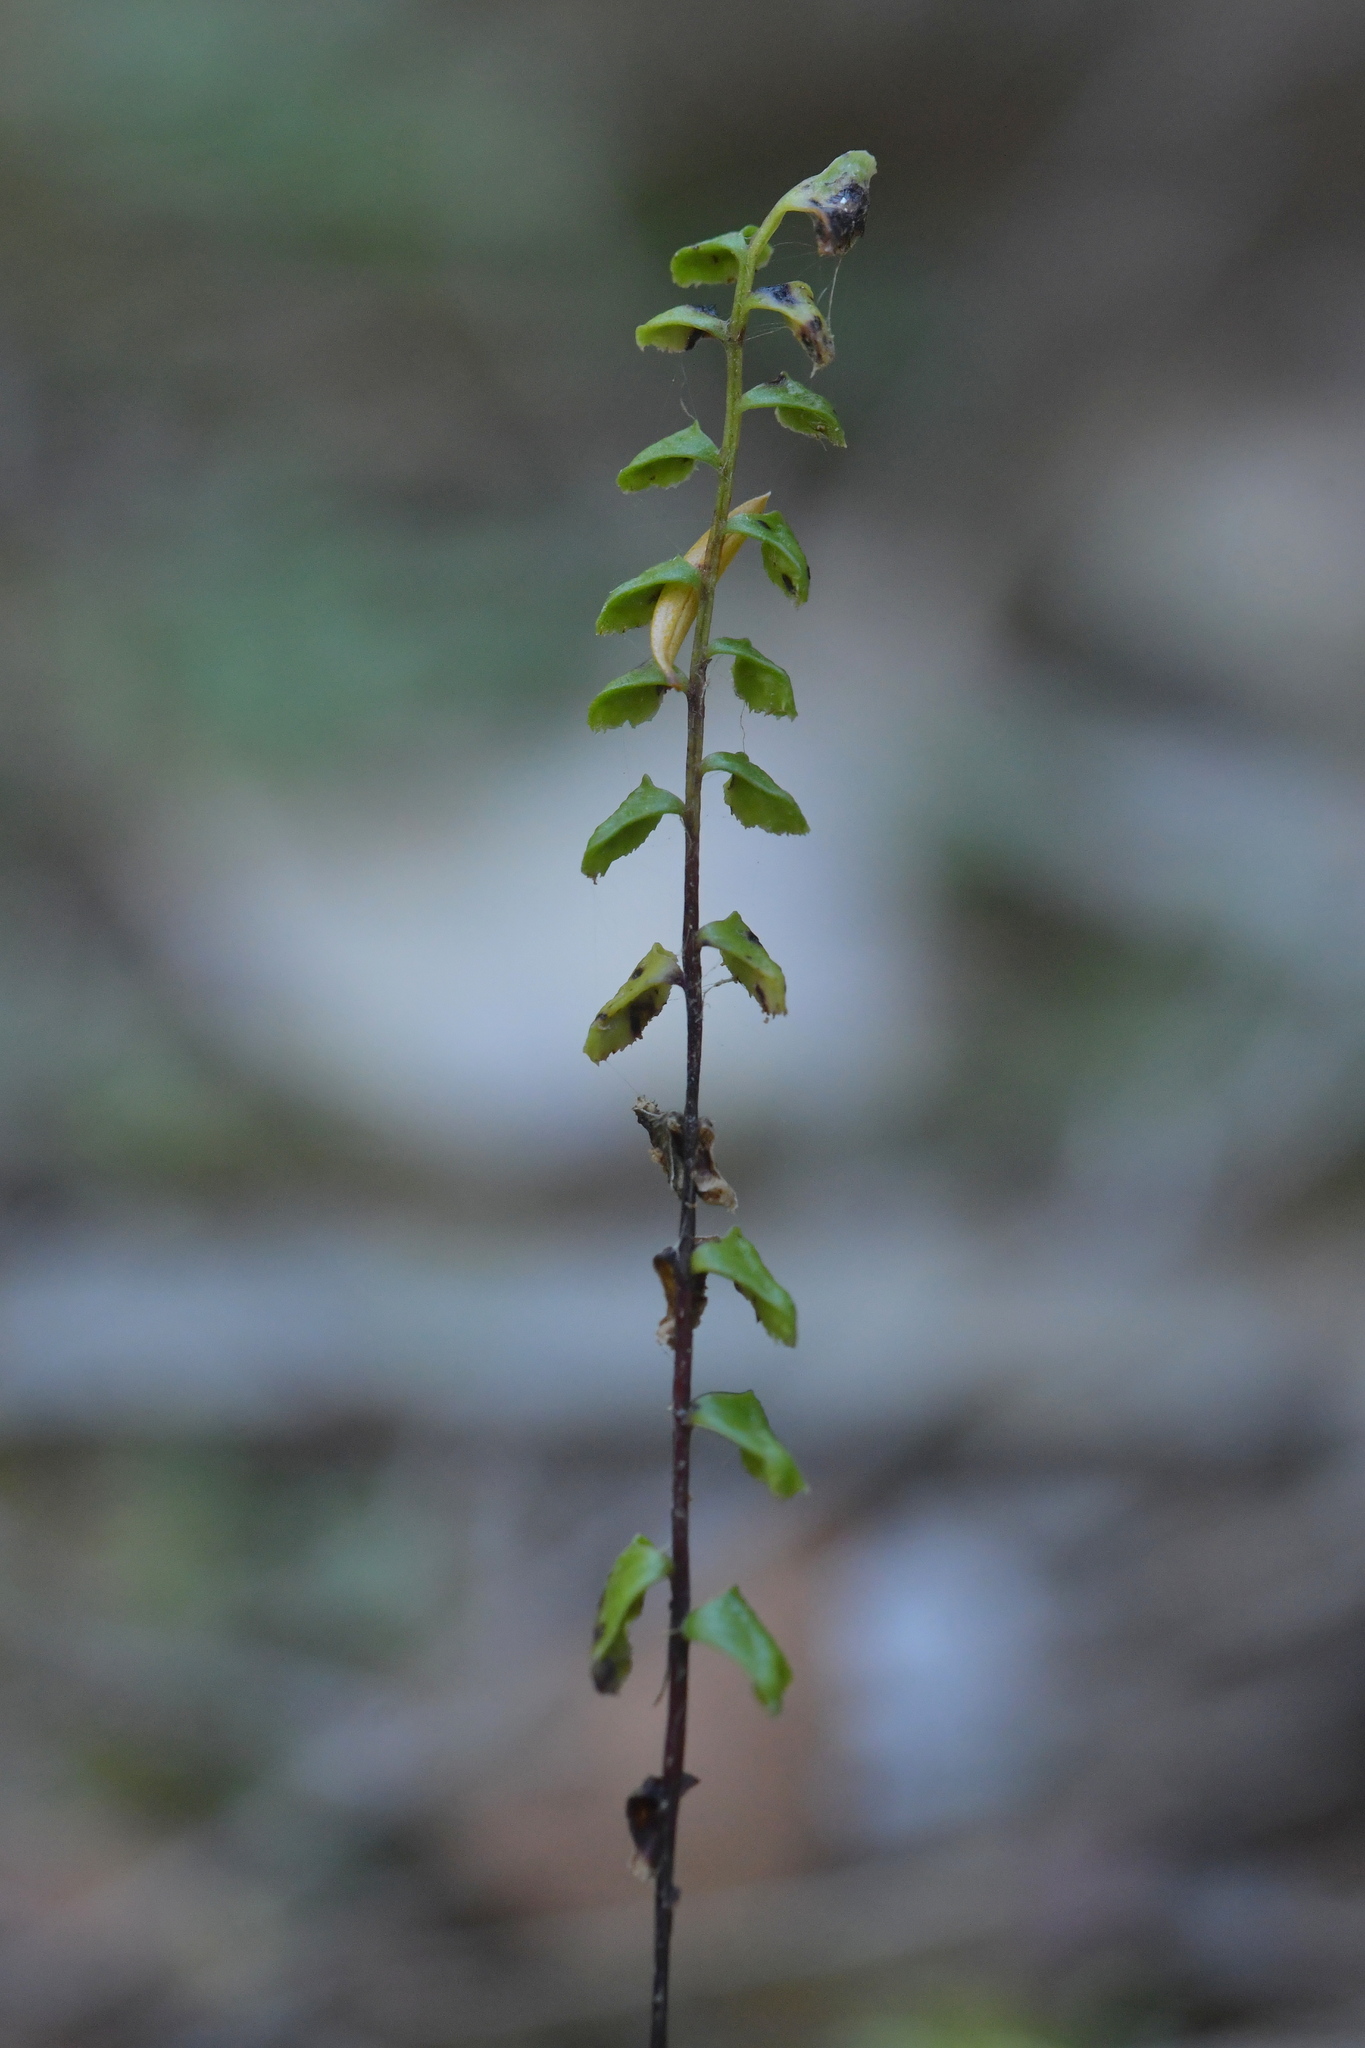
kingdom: Plantae
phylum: Tracheophyta
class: Polypodiopsida
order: Polypodiales
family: Lindsaeaceae
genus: Lindsaea
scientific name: Lindsaea linearis
